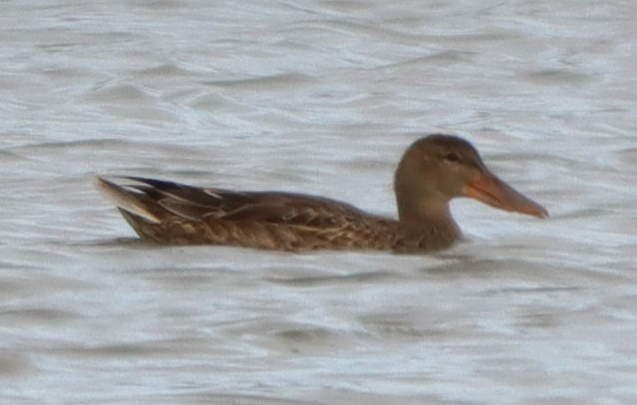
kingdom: Animalia
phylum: Chordata
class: Aves
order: Anseriformes
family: Anatidae
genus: Spatula
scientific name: Spatula clypeata
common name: Northern shoveler
